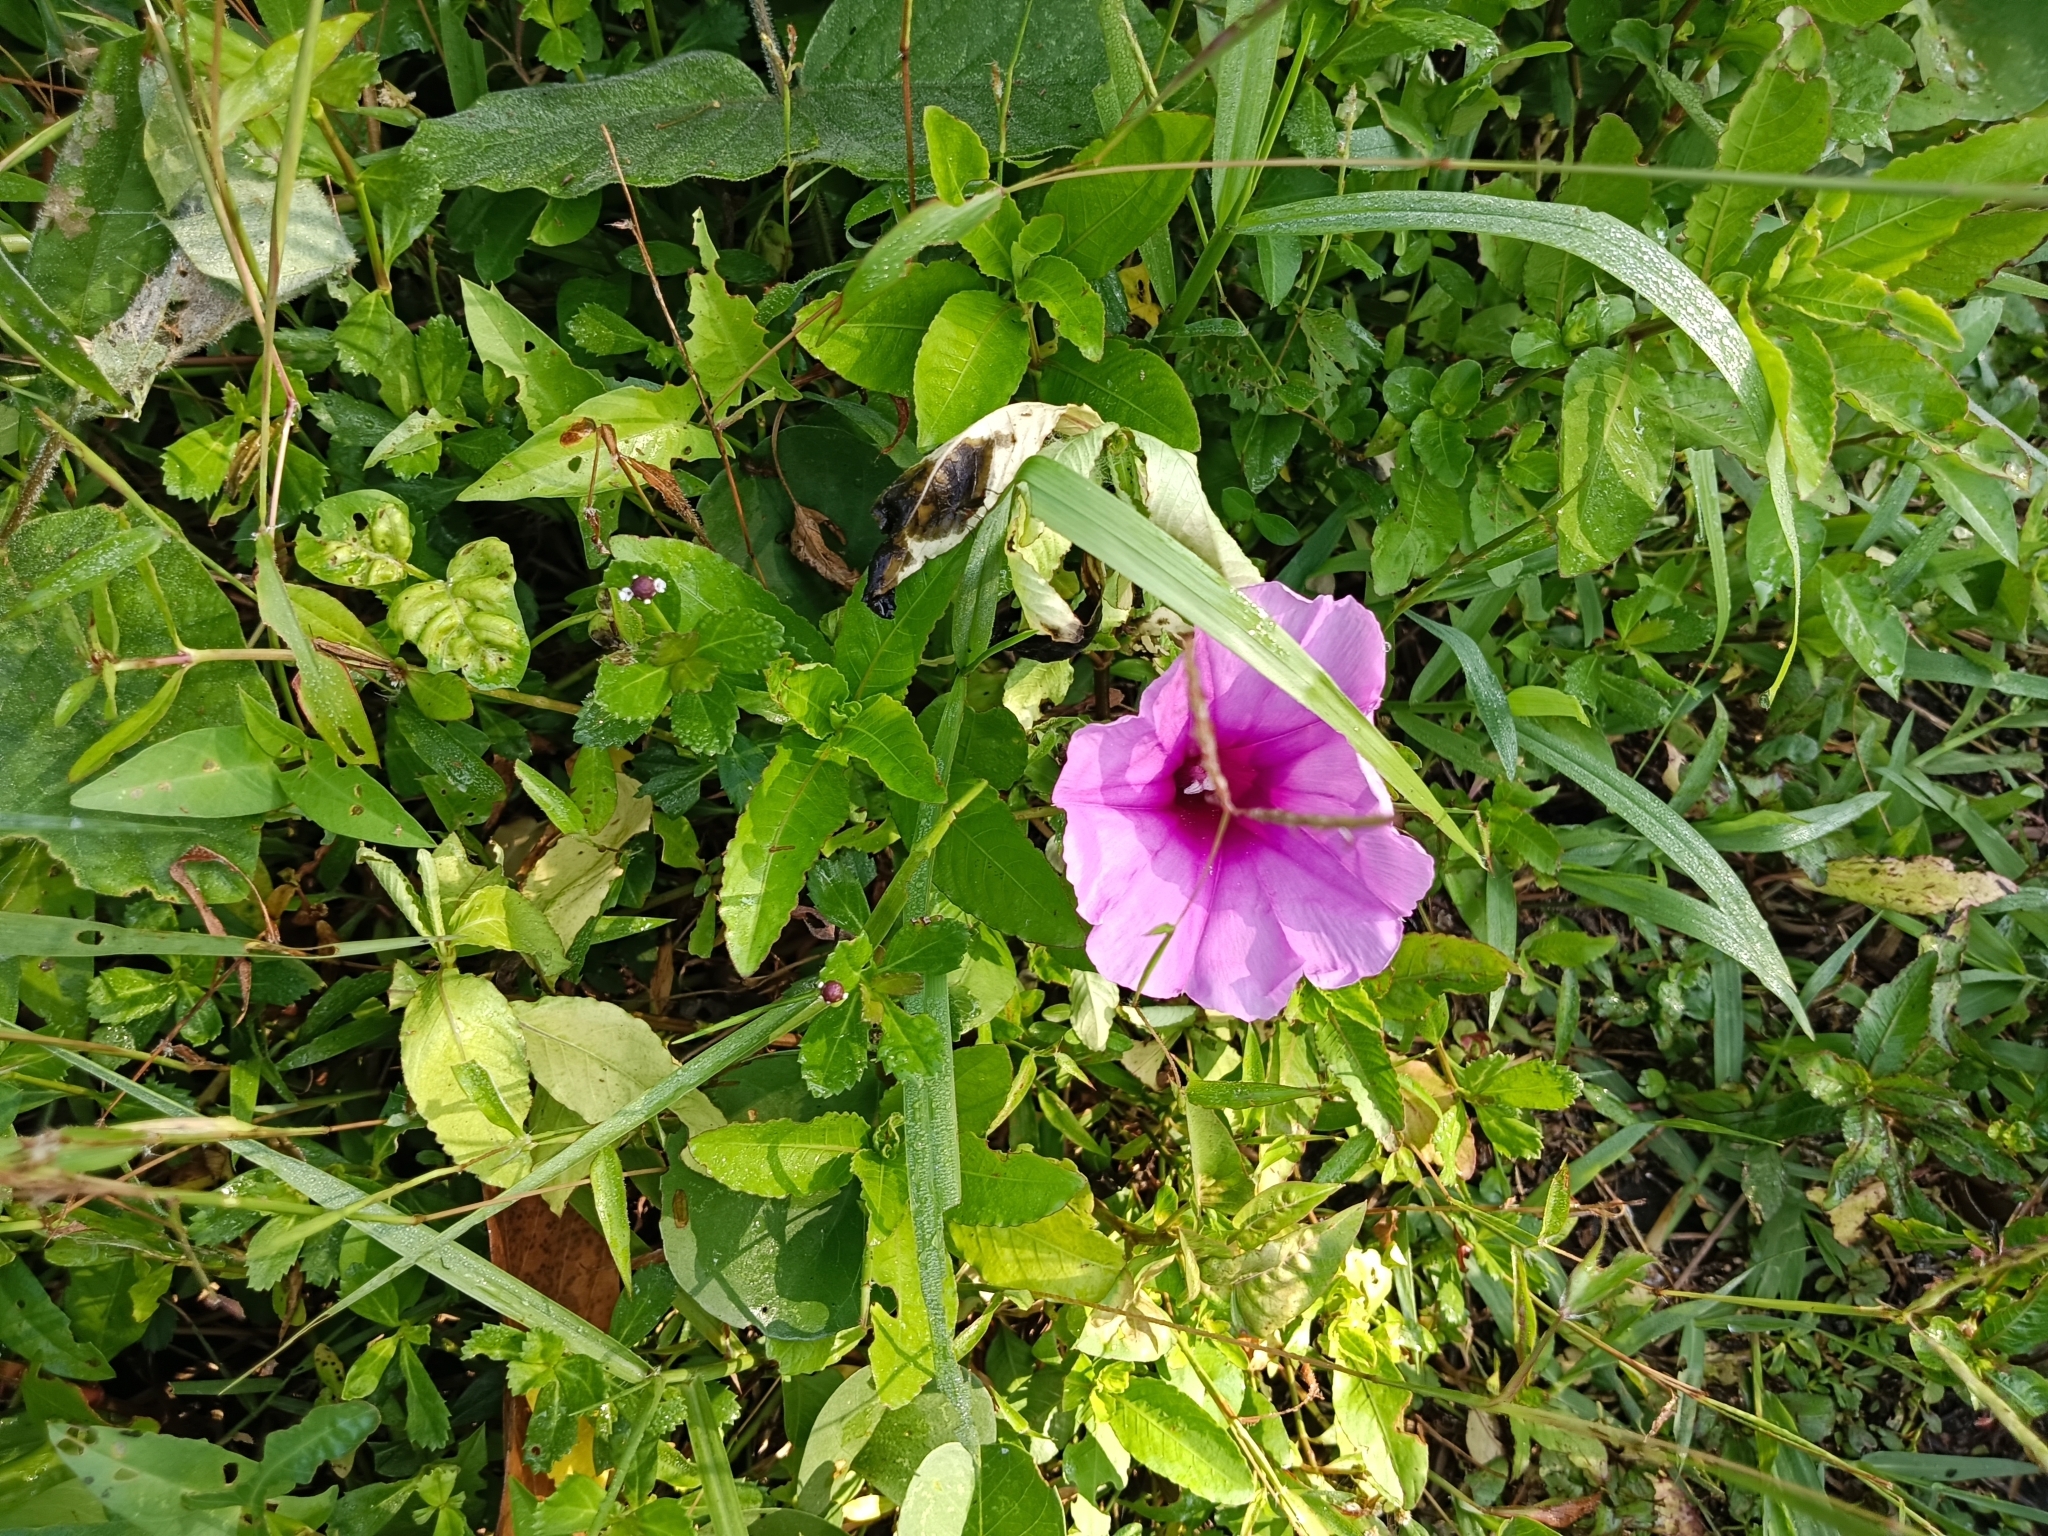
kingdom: Plantae
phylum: Tracheophyta
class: Magnoliopsida
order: Solanales
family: Convolvulaceae
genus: Ipomoea
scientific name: Ipomoea pes-caprae
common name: Beach morning glory
